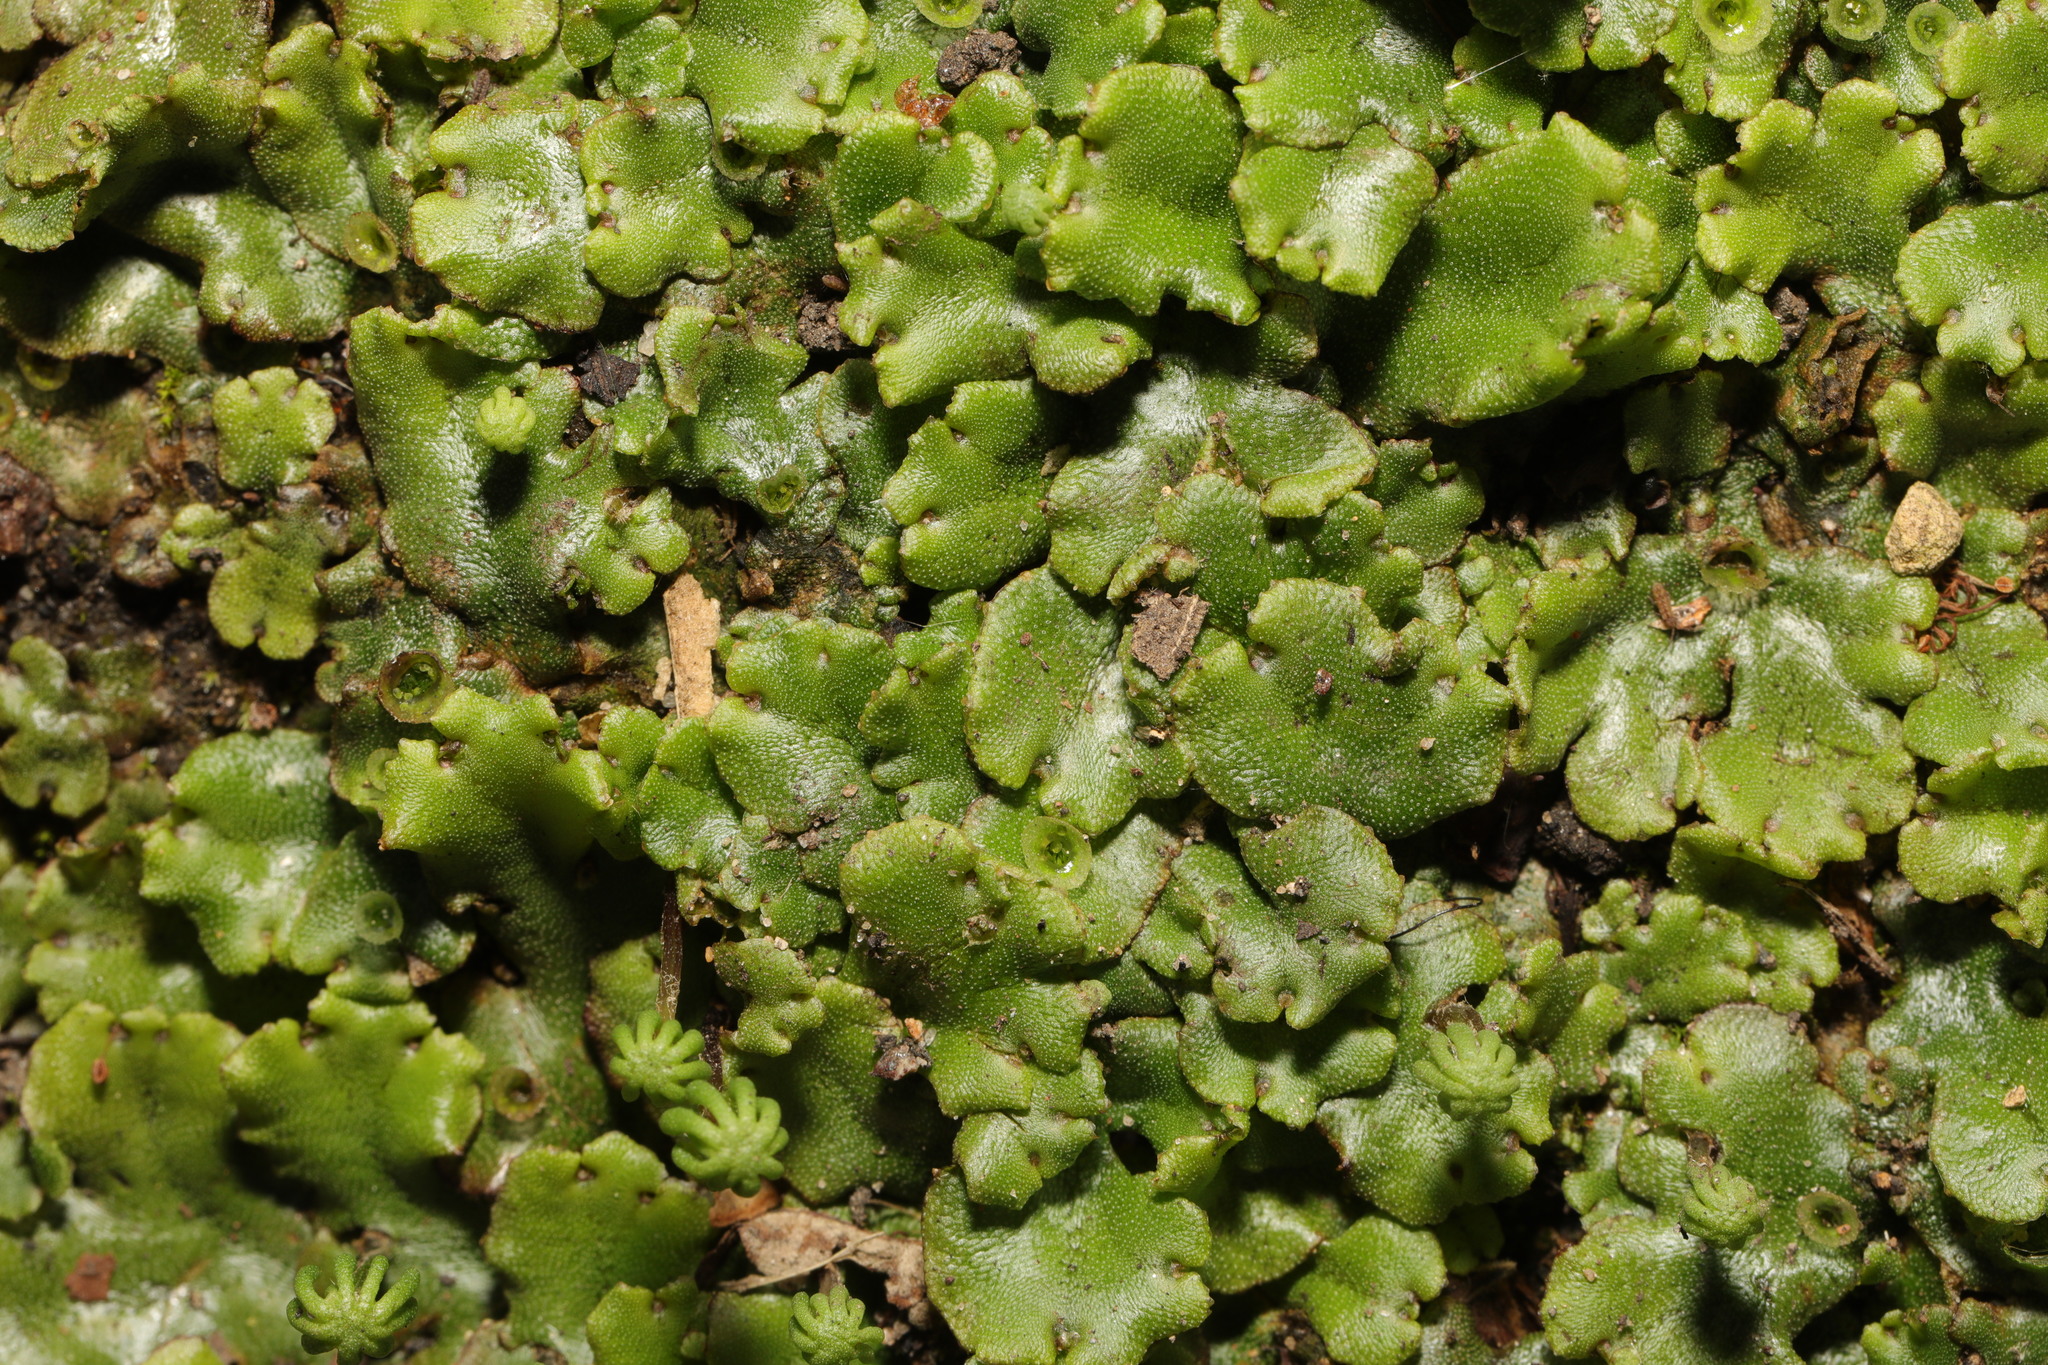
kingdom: Plantae
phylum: Marchantiophyta
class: Marchantiopsida
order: Marchantiales
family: Marchantiaceae
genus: Marchantia
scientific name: Marchantia polymorpha
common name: Common liverwort
